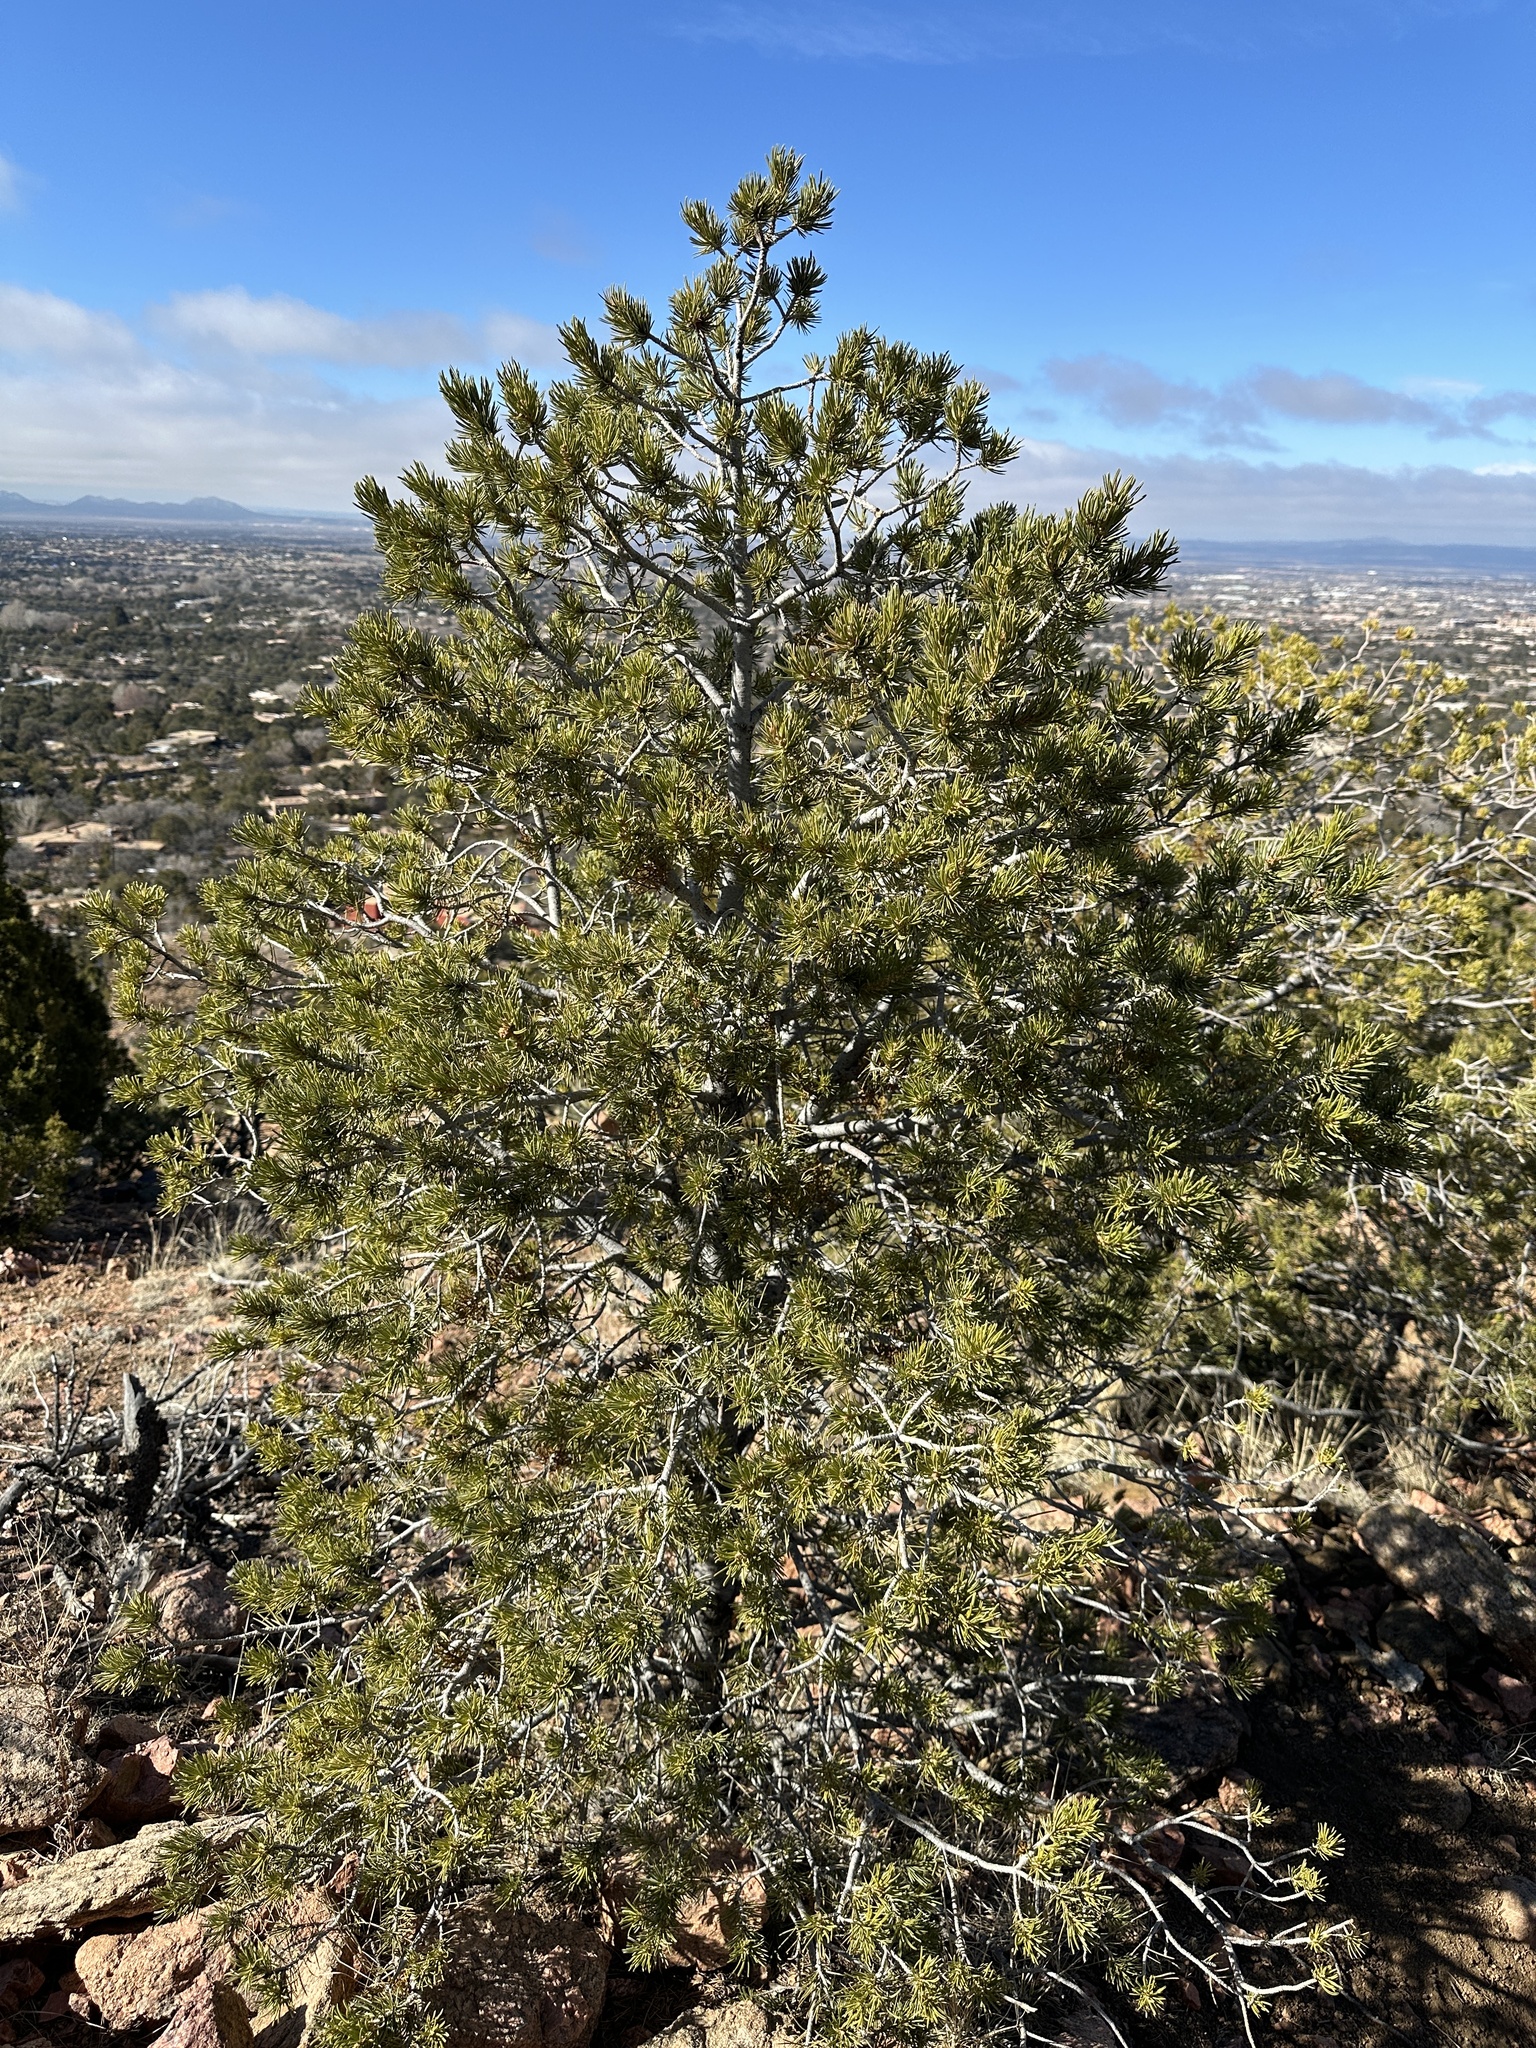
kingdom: Plantae
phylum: Tracheophyta
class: Pinopsida
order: Pinales
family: Pinaceae
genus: Pinus
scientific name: Pinus edulis
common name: Colorado pinyon
